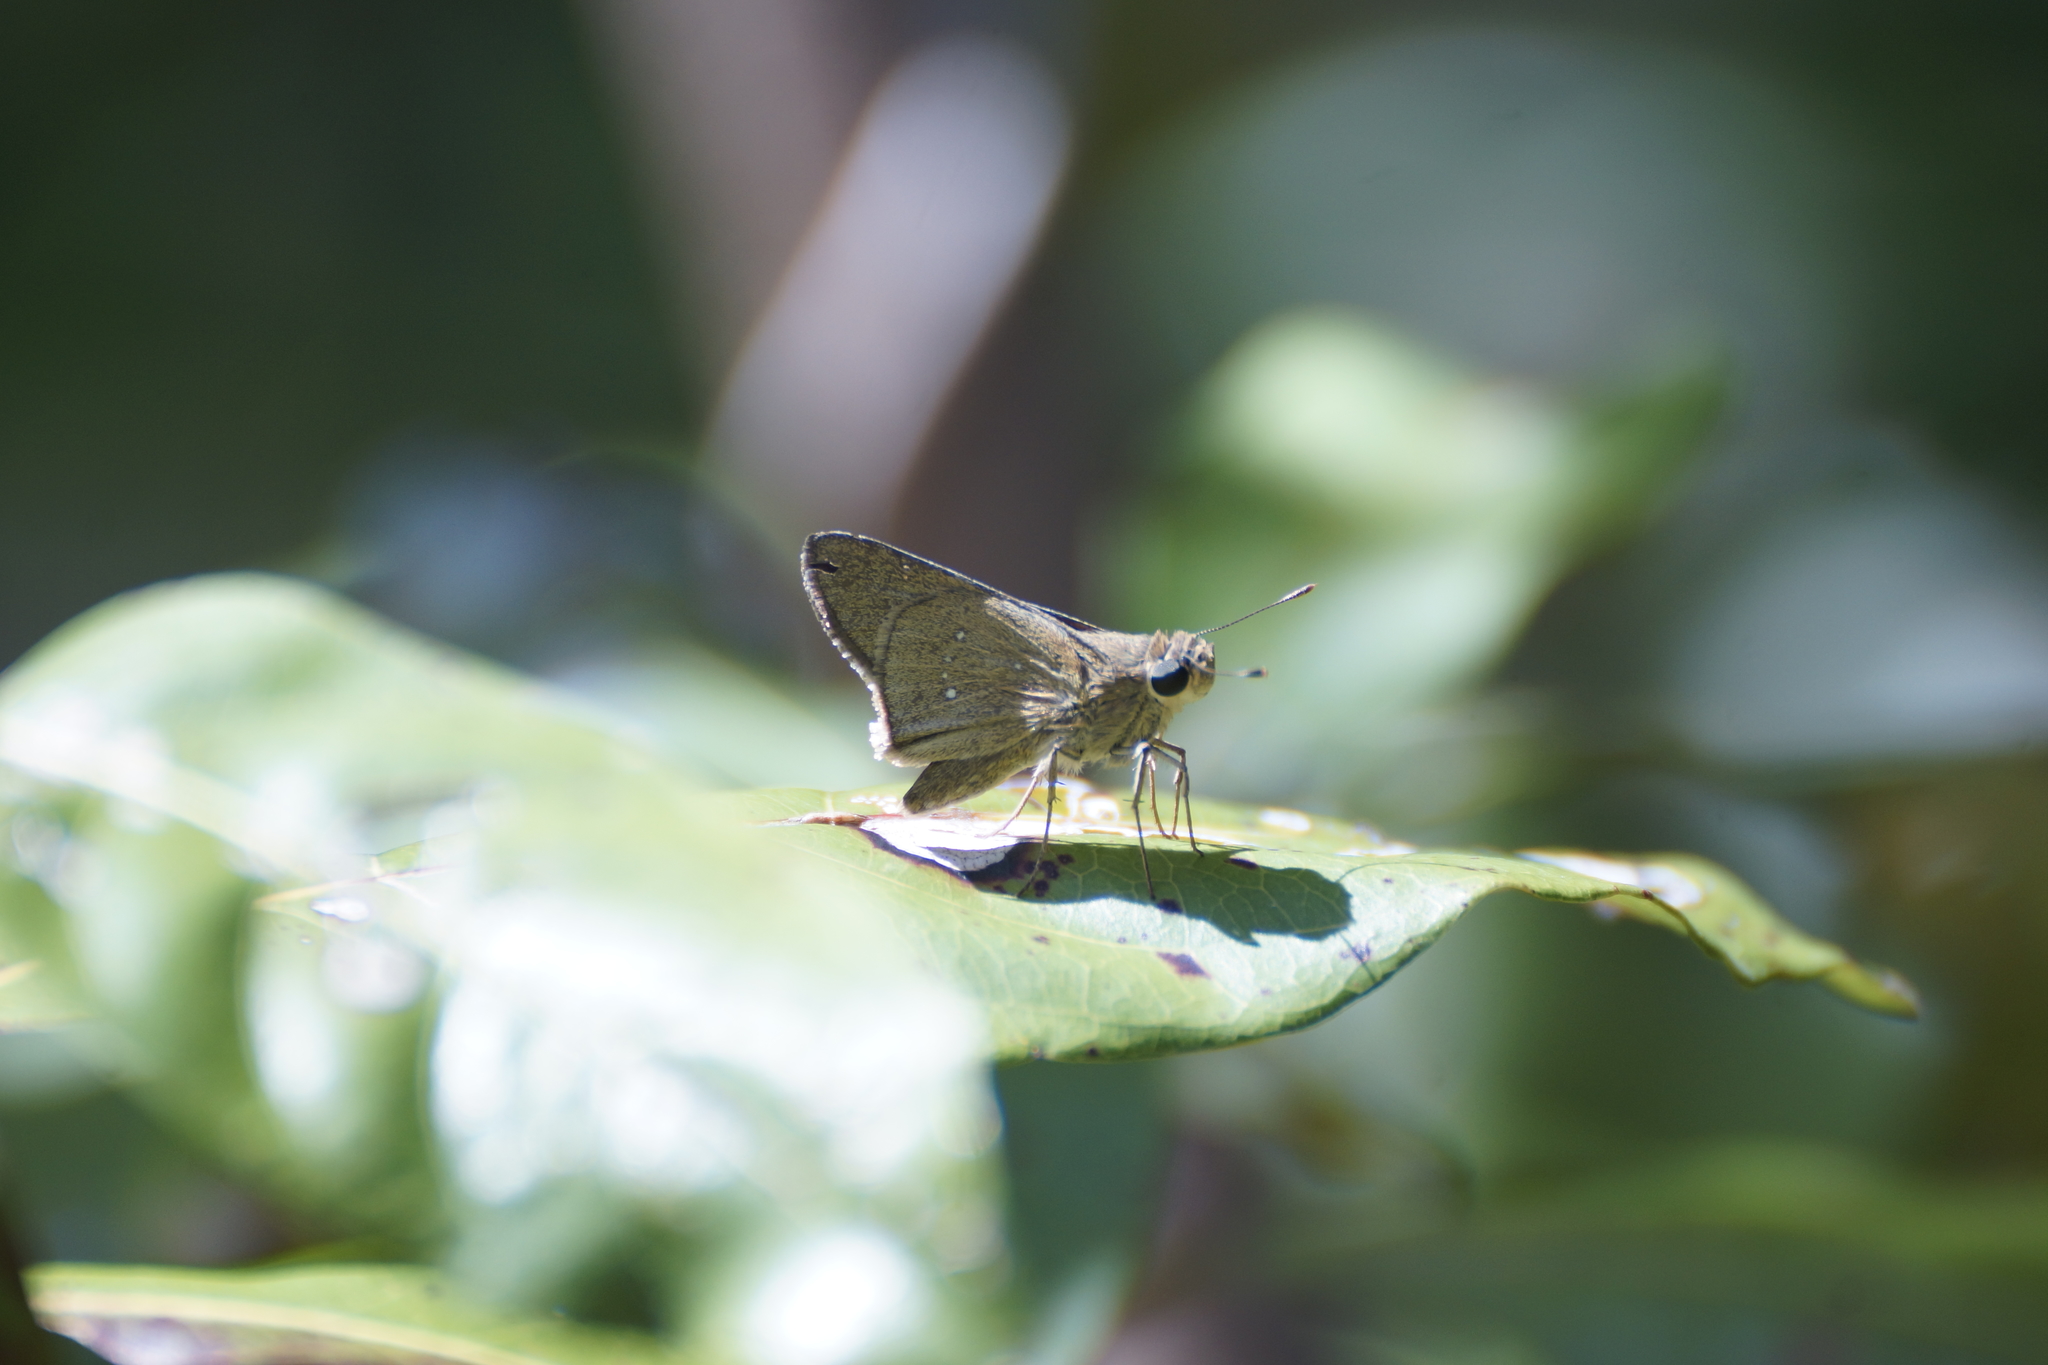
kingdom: Animalia
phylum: Arthropoda
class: Insecta
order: Lepidoptera
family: Hesperiidae
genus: Pelopidas
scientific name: Pelopidas lyelli
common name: Lyell's swift
